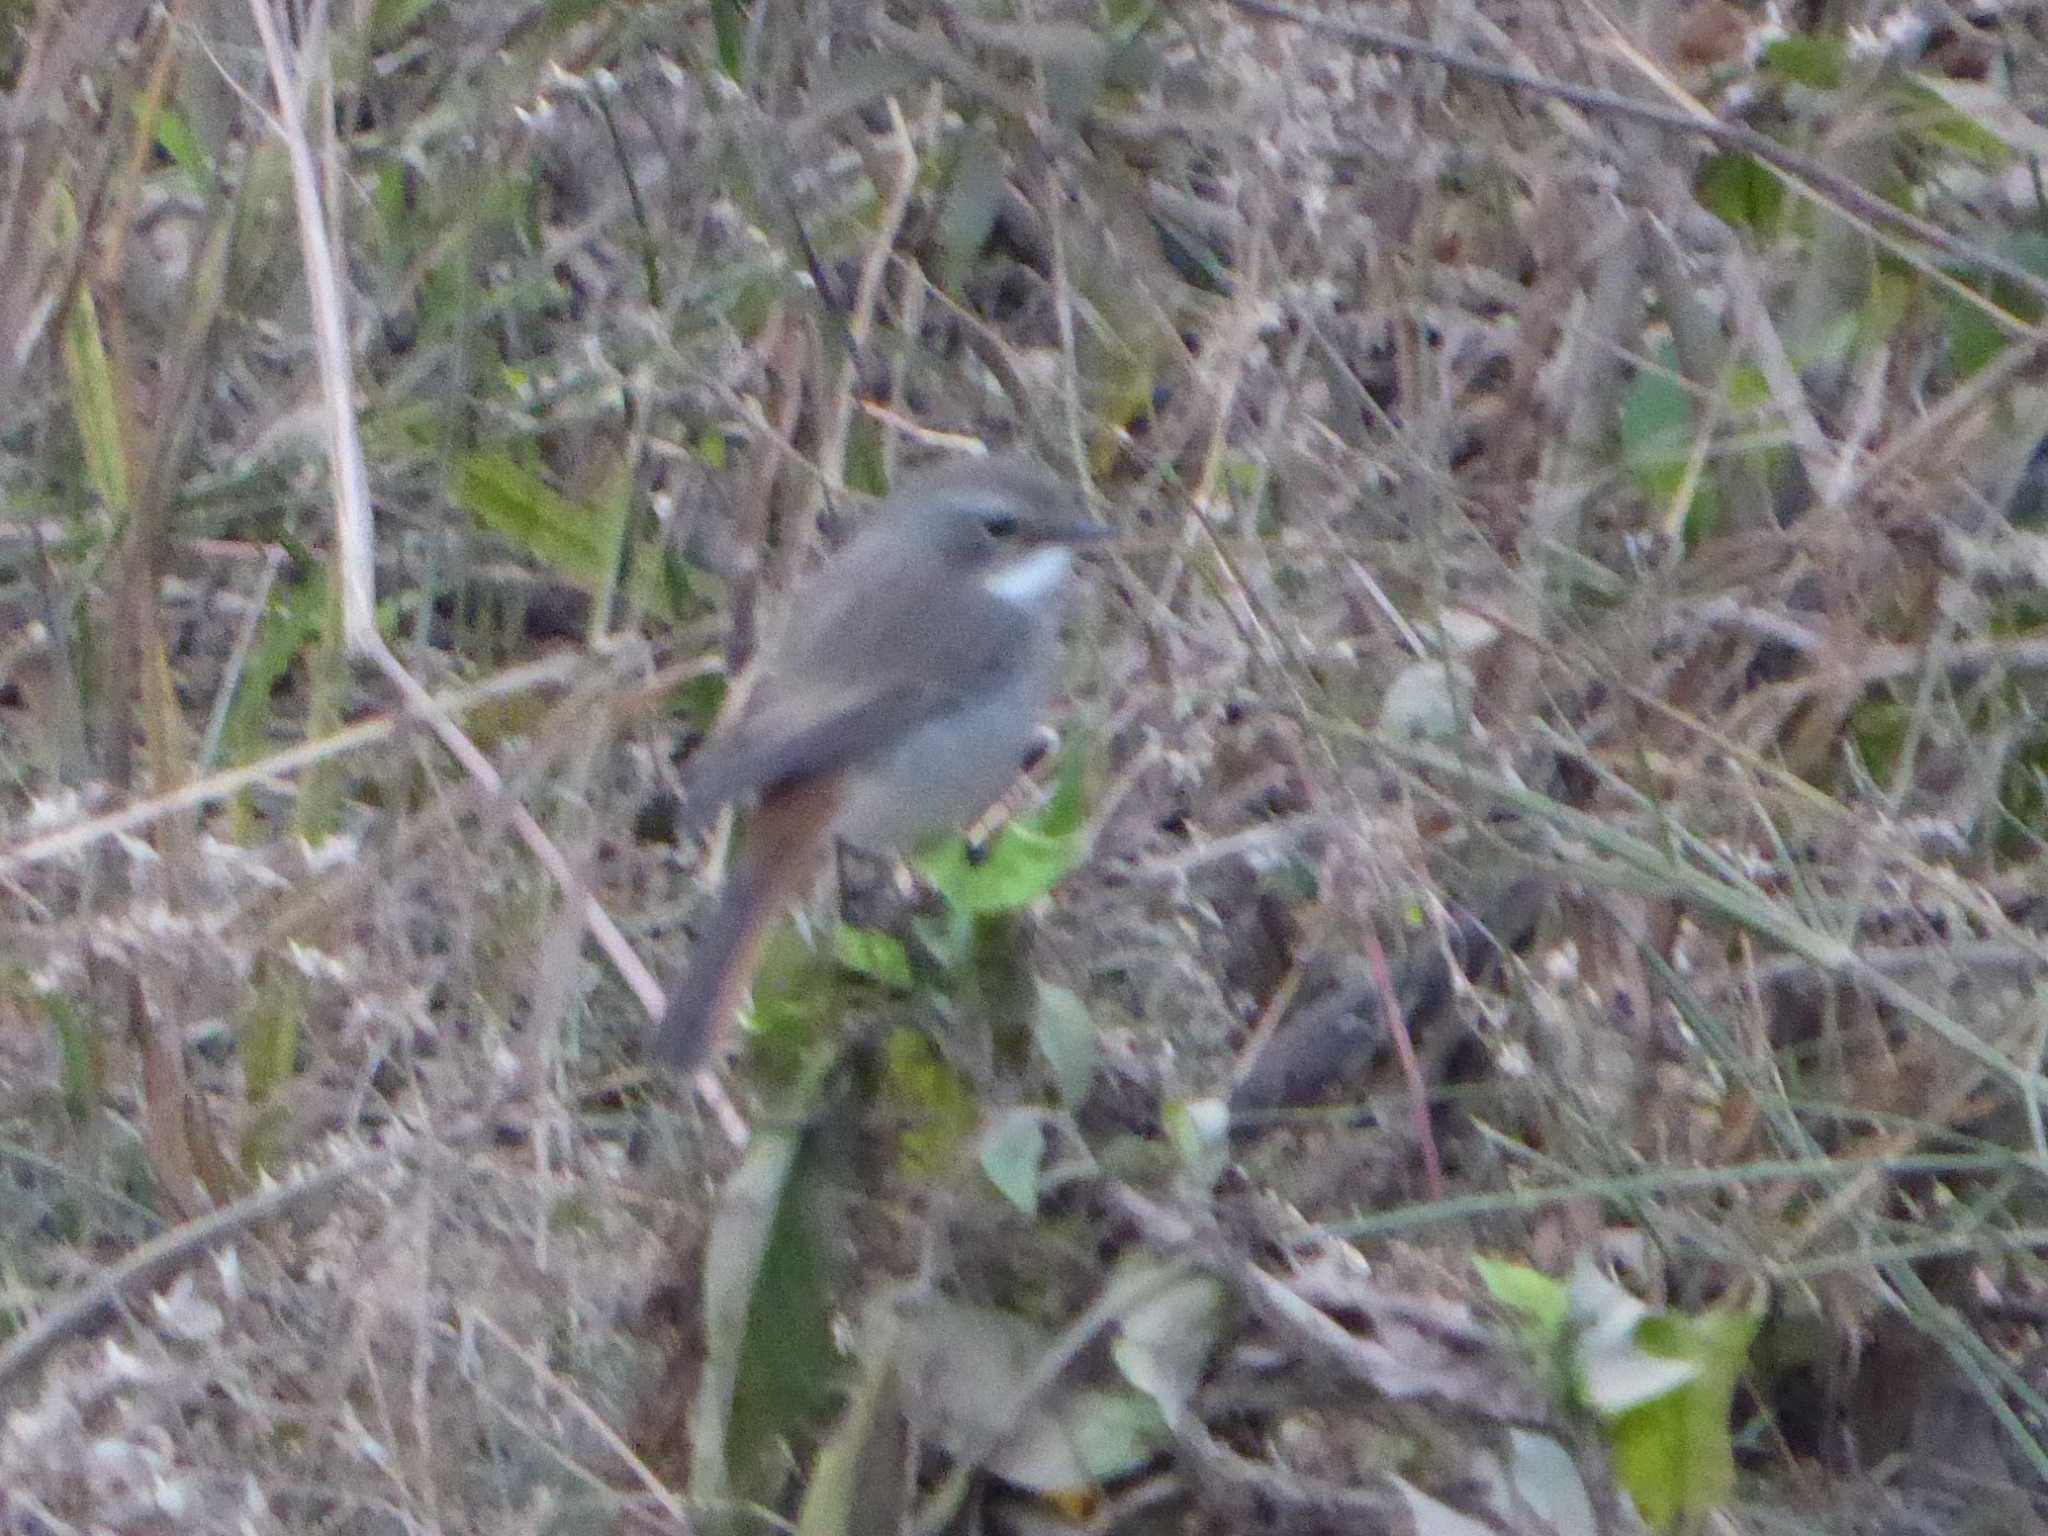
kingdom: Animalia
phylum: Chordata
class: Aves
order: Passeriformes
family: Muscicapidae
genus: Saxicola
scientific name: Saxicola ferreus
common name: Grey bush chat
